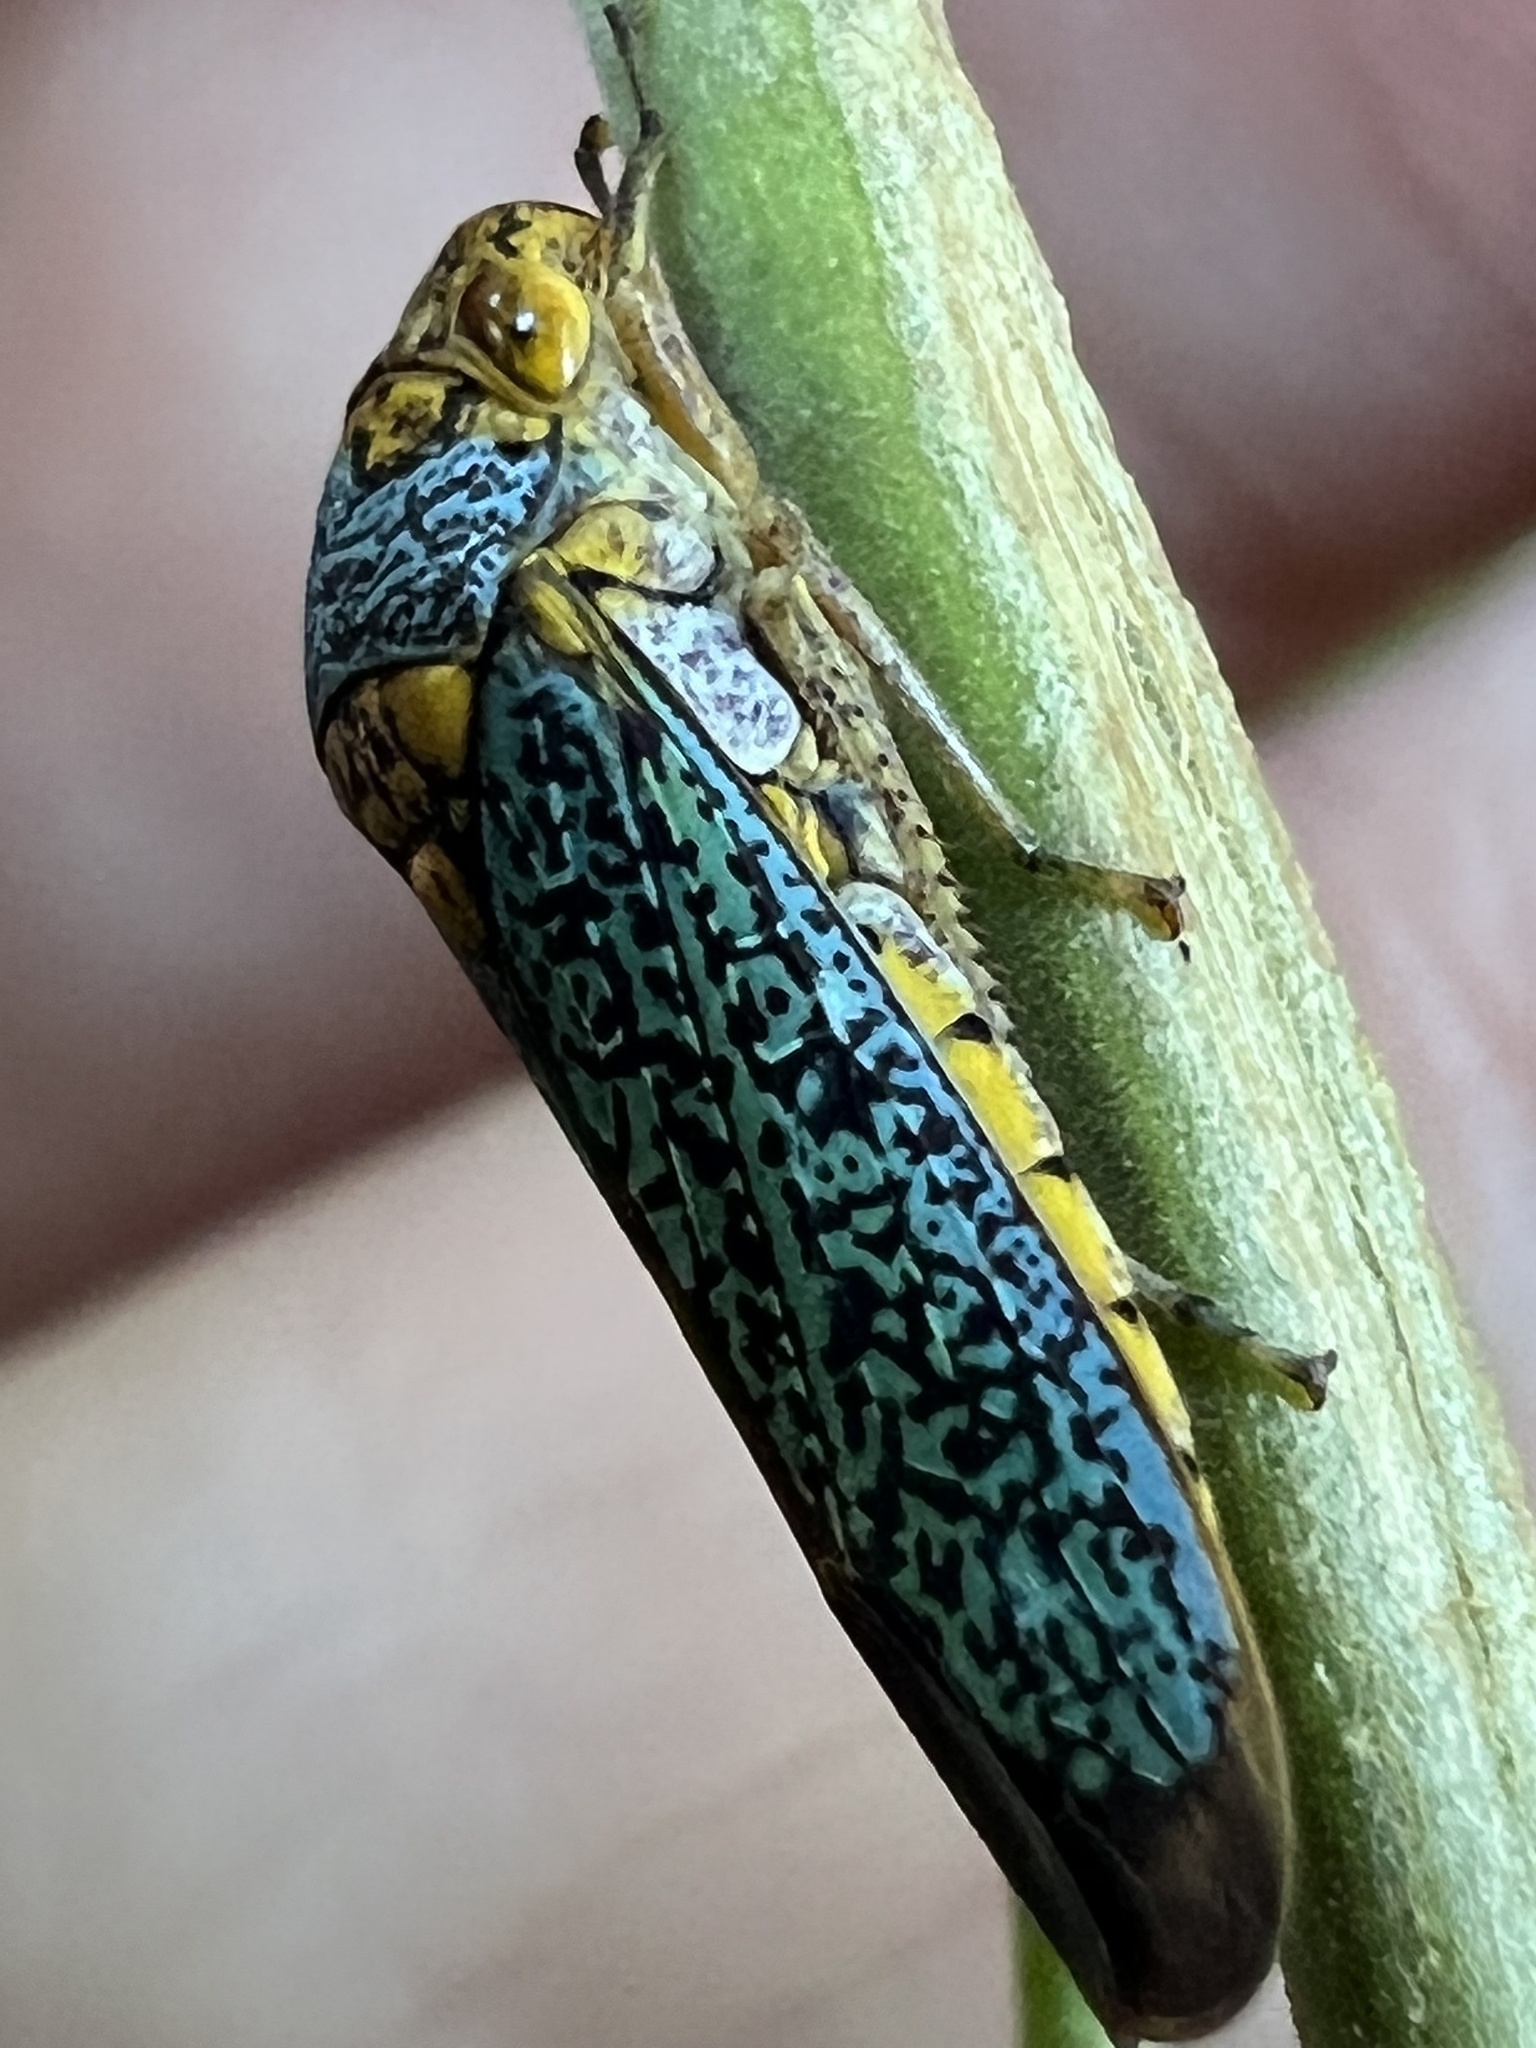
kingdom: Animalia
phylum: Arthropoda
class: Insecta
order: Hemiptera
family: Cicadellidae
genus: Oncometopia
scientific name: Oncometopia orbona
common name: Broad-headed sharpshooter
